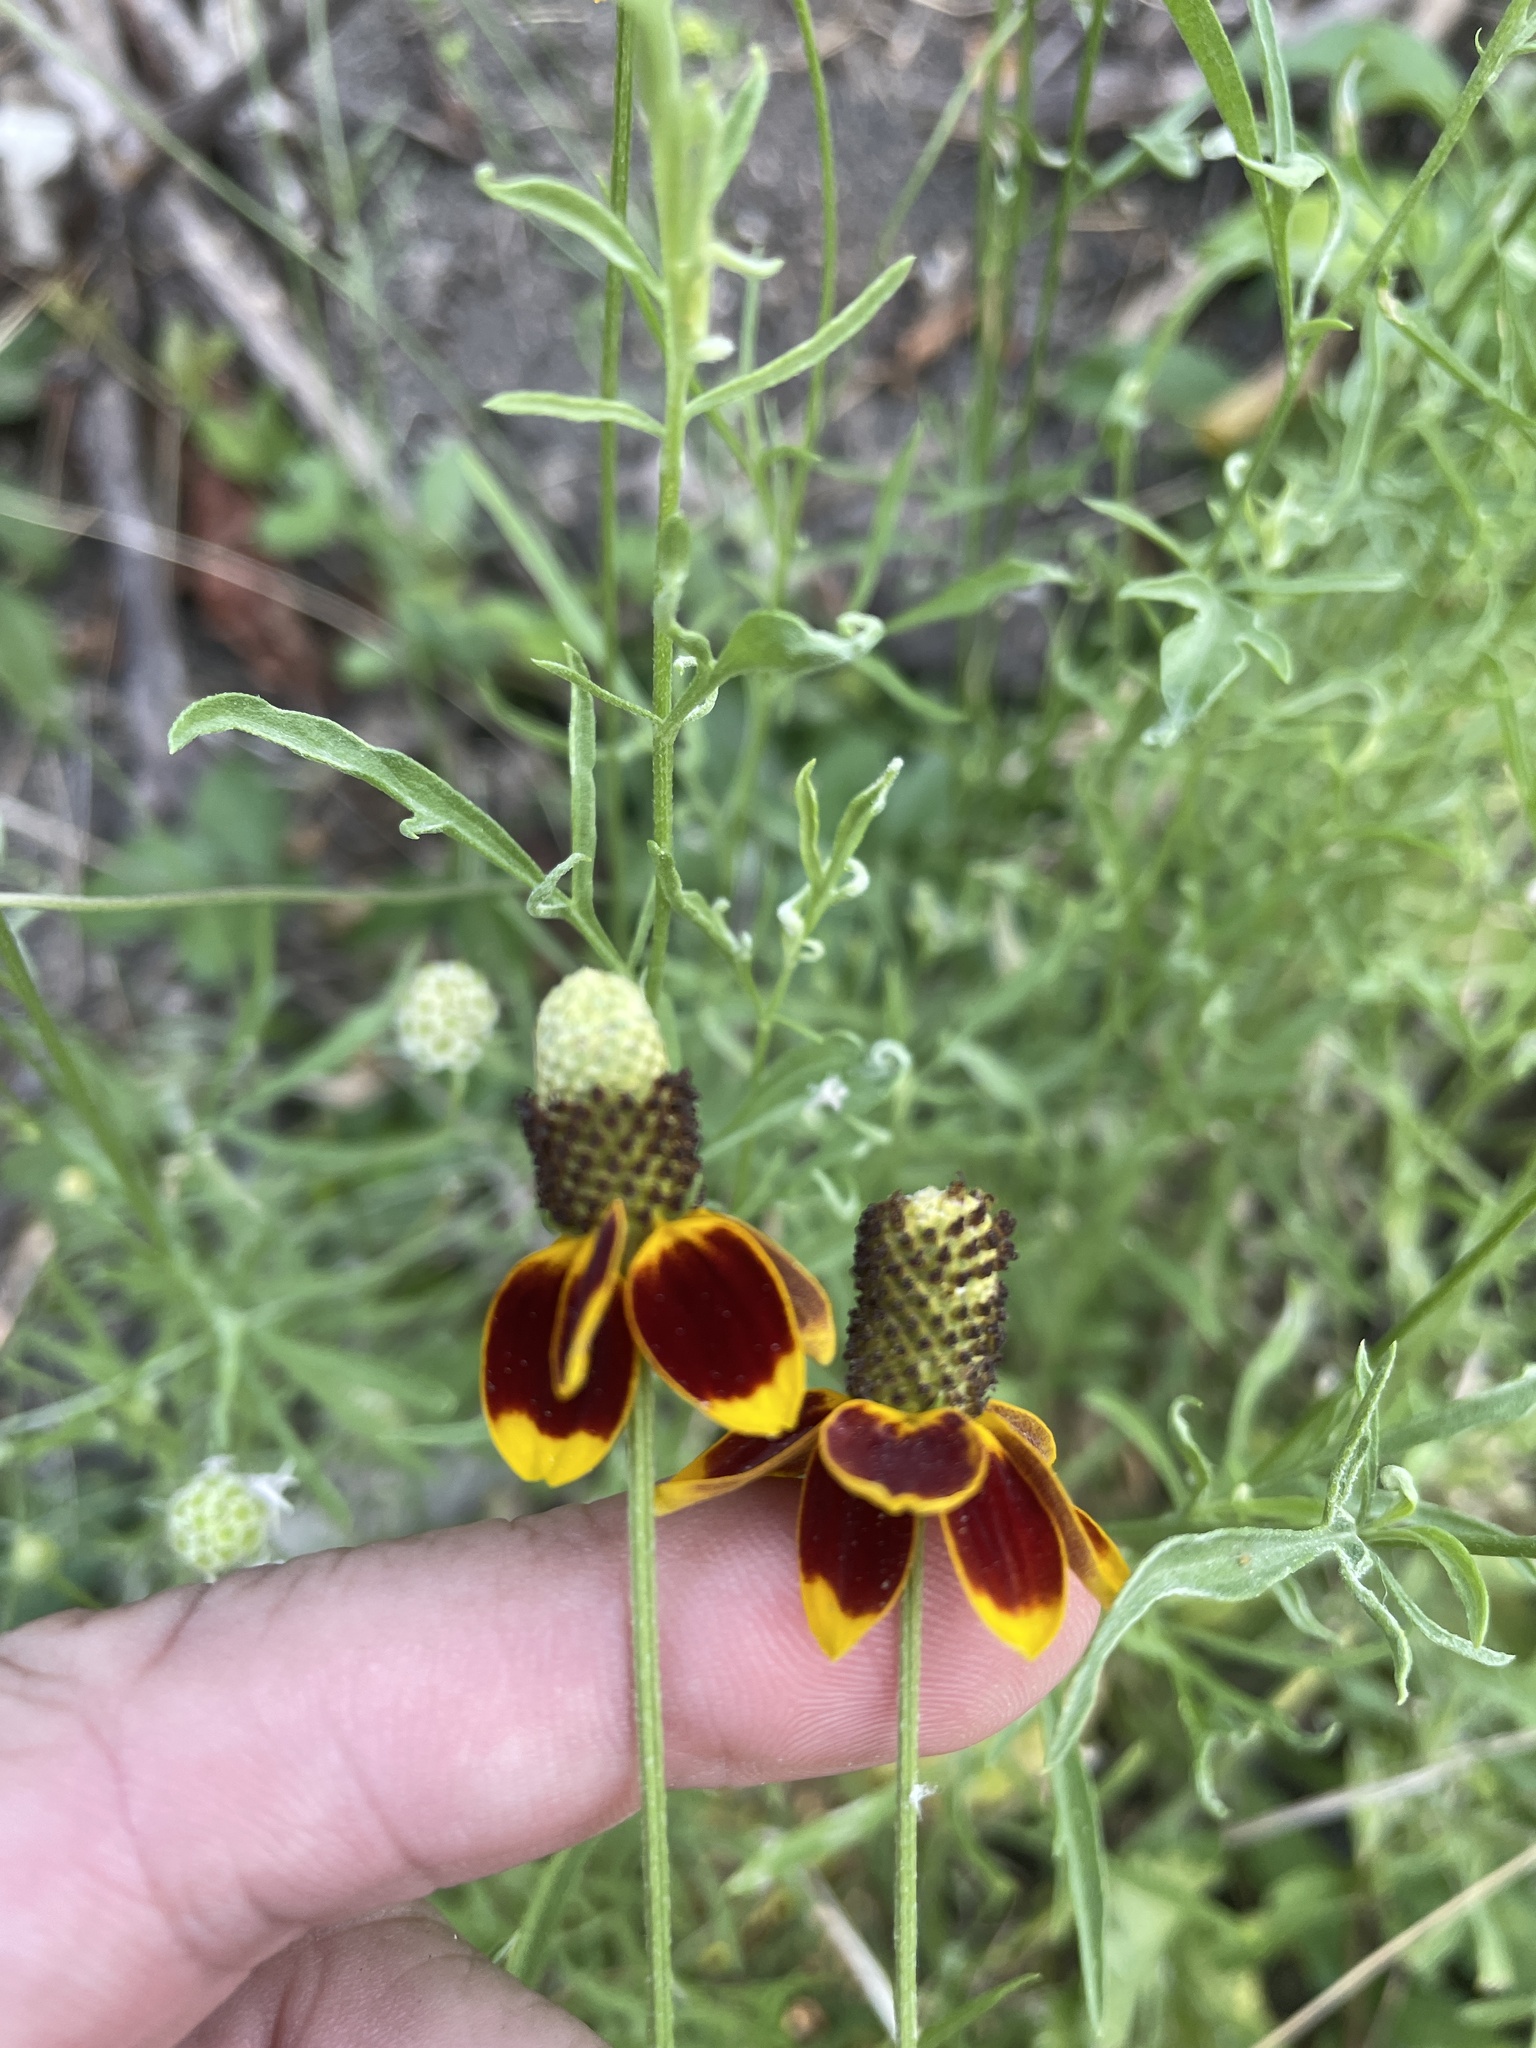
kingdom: Plantae
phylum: Tracheophyta
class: Magnoliopsida
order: Asterales
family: Asteraceae
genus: Ratibida
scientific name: Ratibida columnifera
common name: Prairie coneflower
